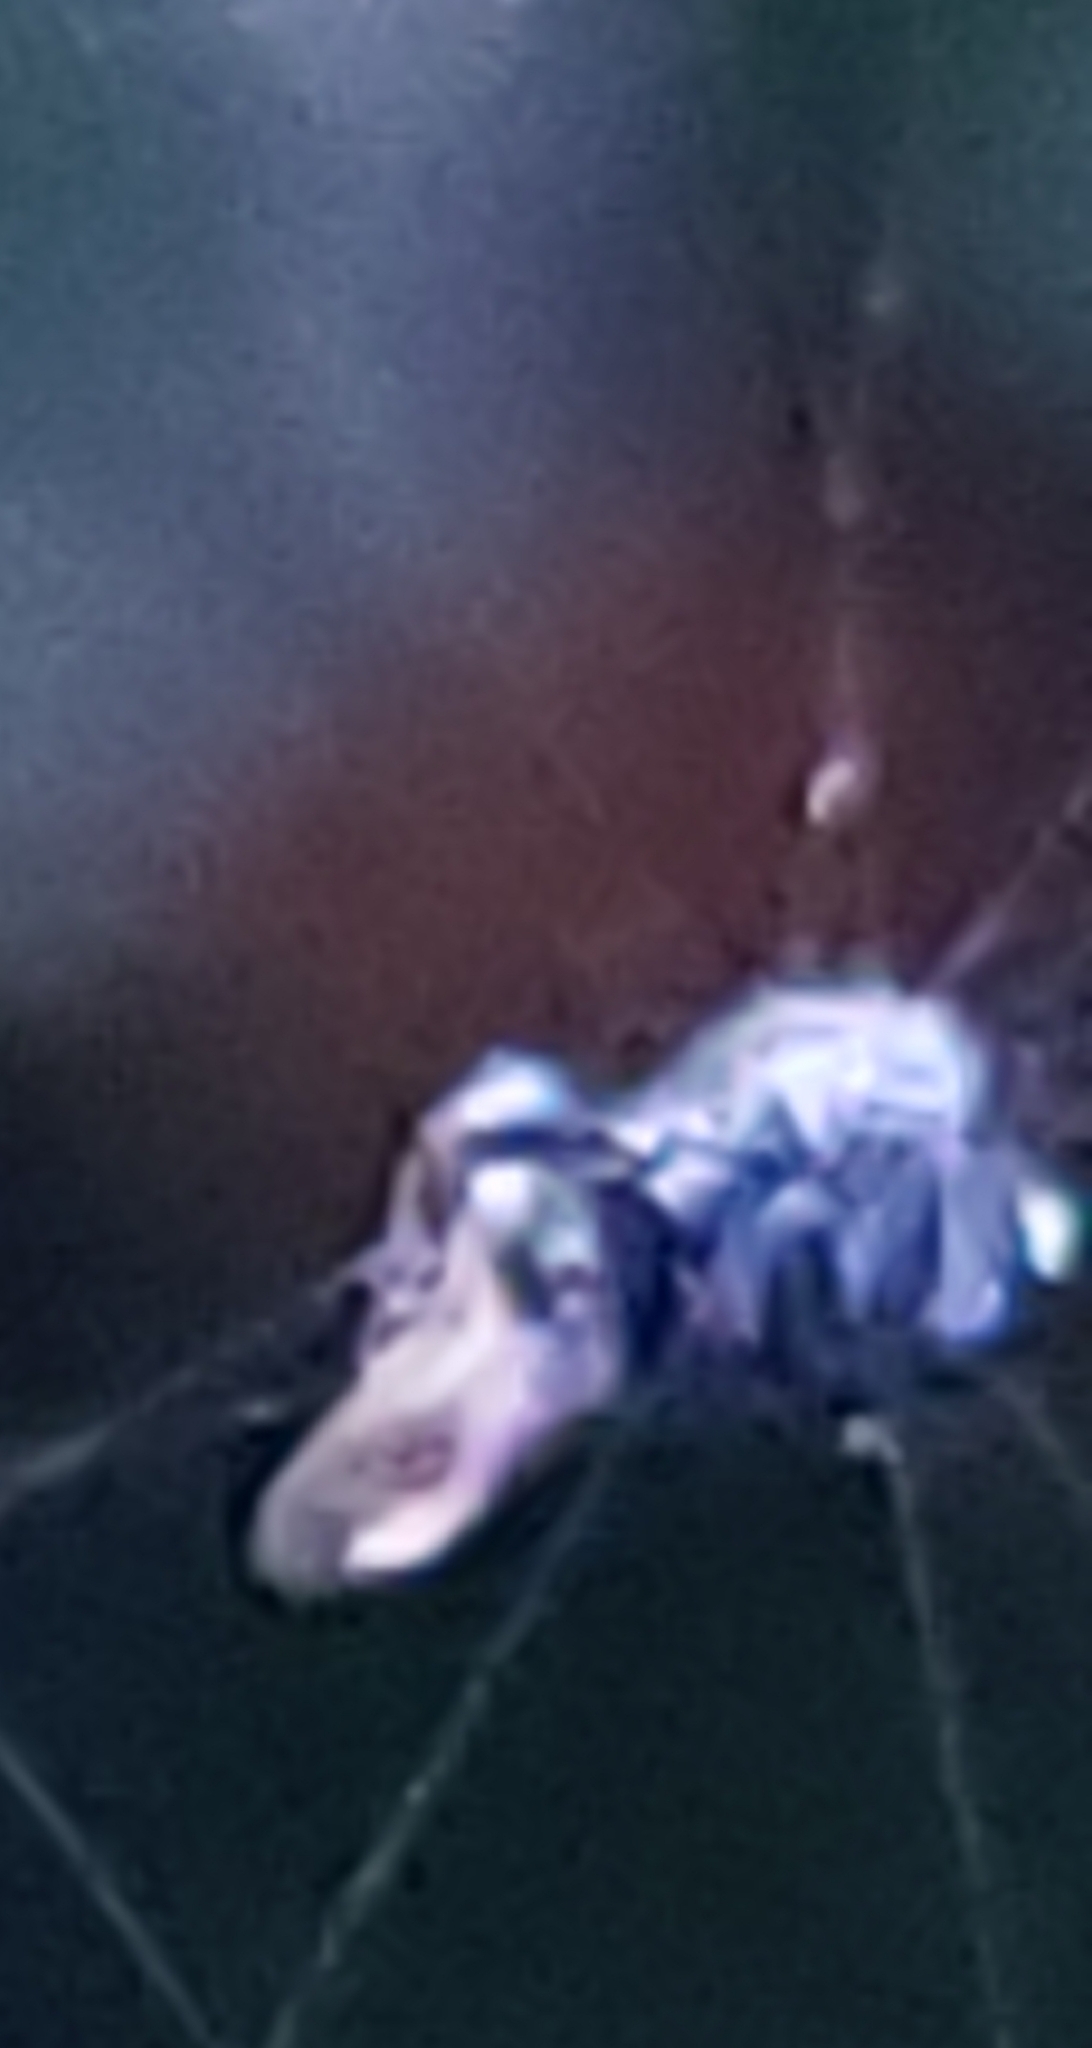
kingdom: Animalia
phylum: Arthropoda
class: Arachnida
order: Araneae
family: Araneidae
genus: Gasteracantha
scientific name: Gasteracantha cancriformis
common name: Orb weavers
